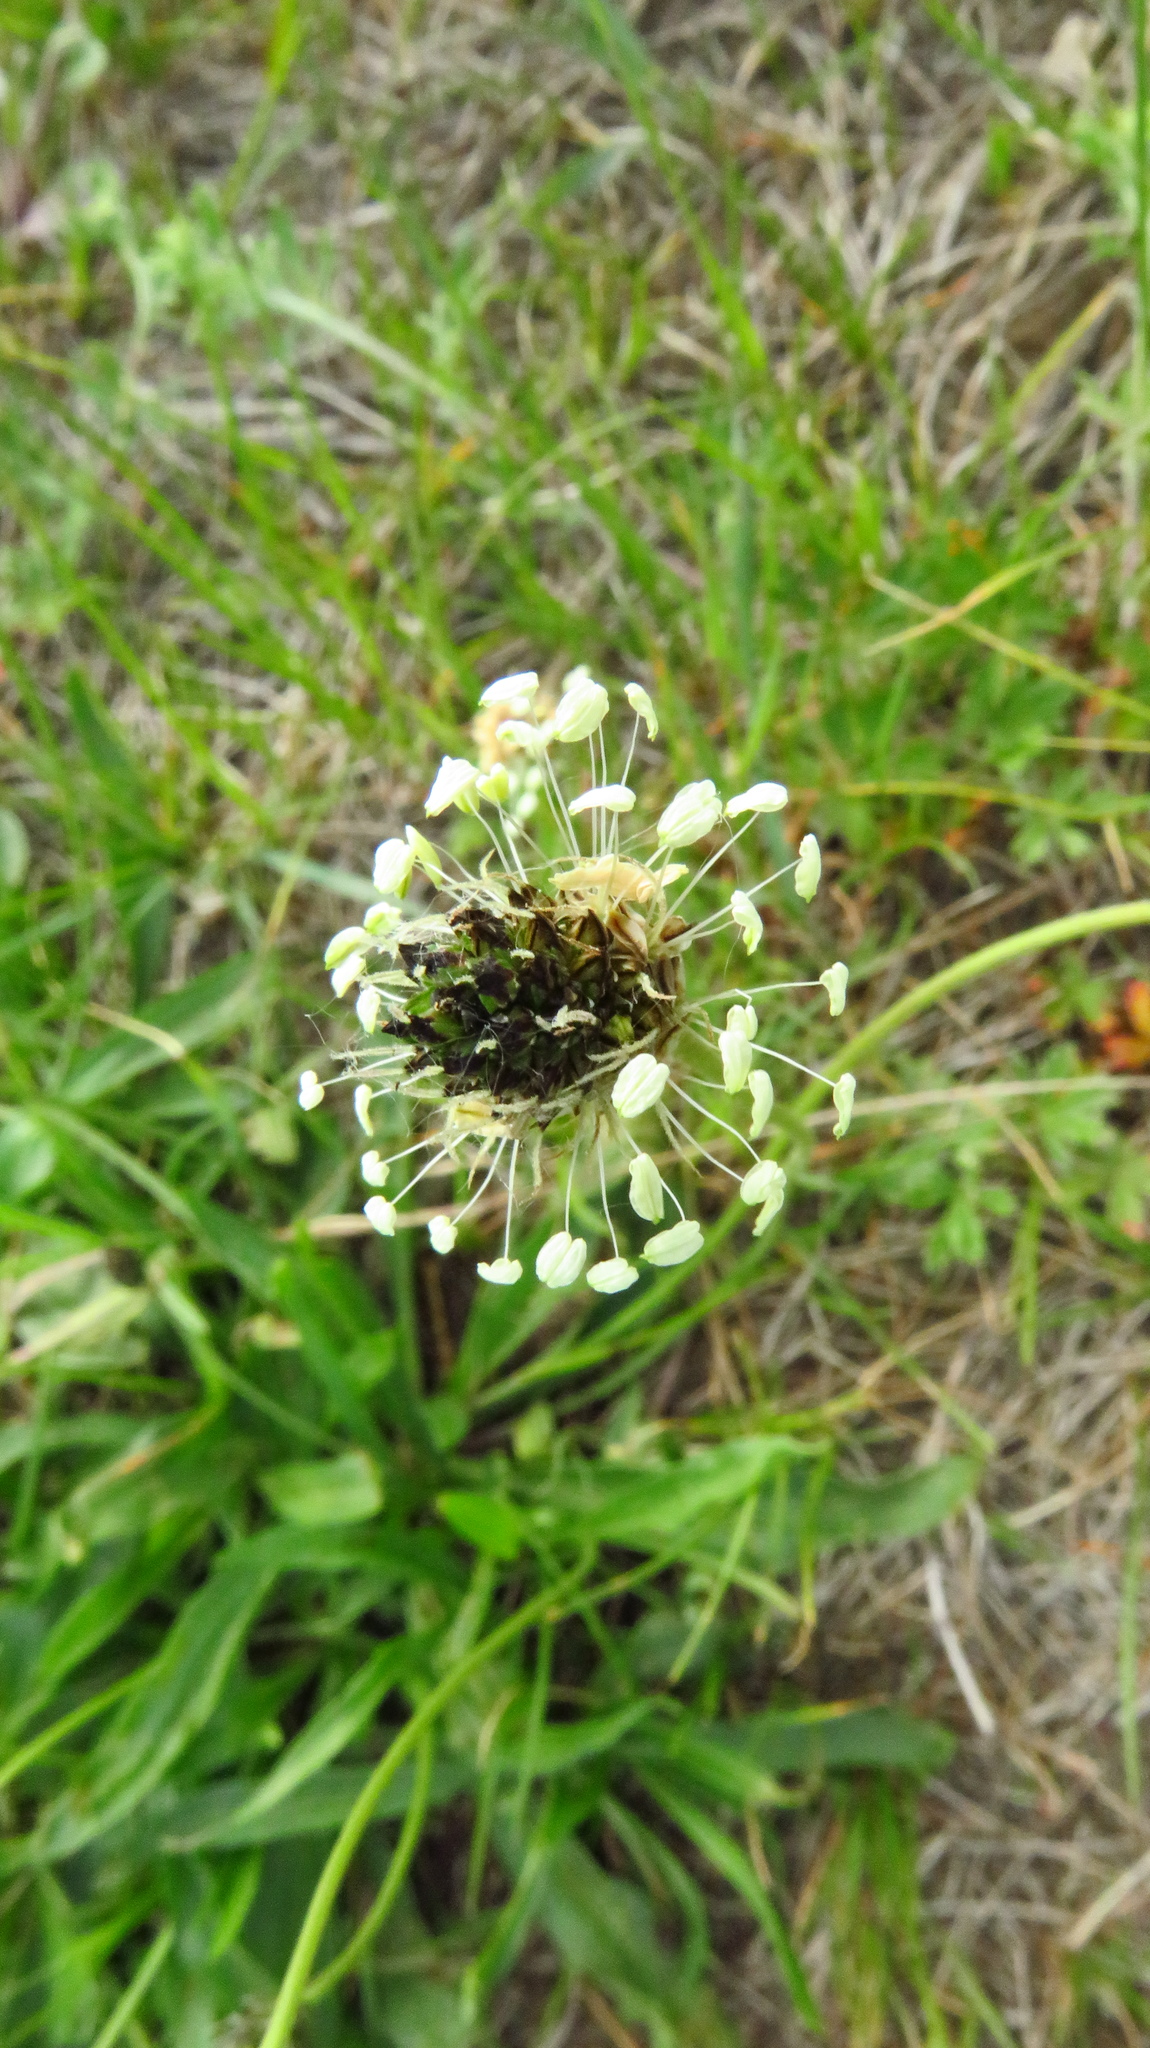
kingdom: Plantae
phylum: Tracheophyta
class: Magnoliopsida
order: Lamiales
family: Plantaginaceae
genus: Plantago
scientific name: Plantago lanceolata
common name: Ribwort plantain
